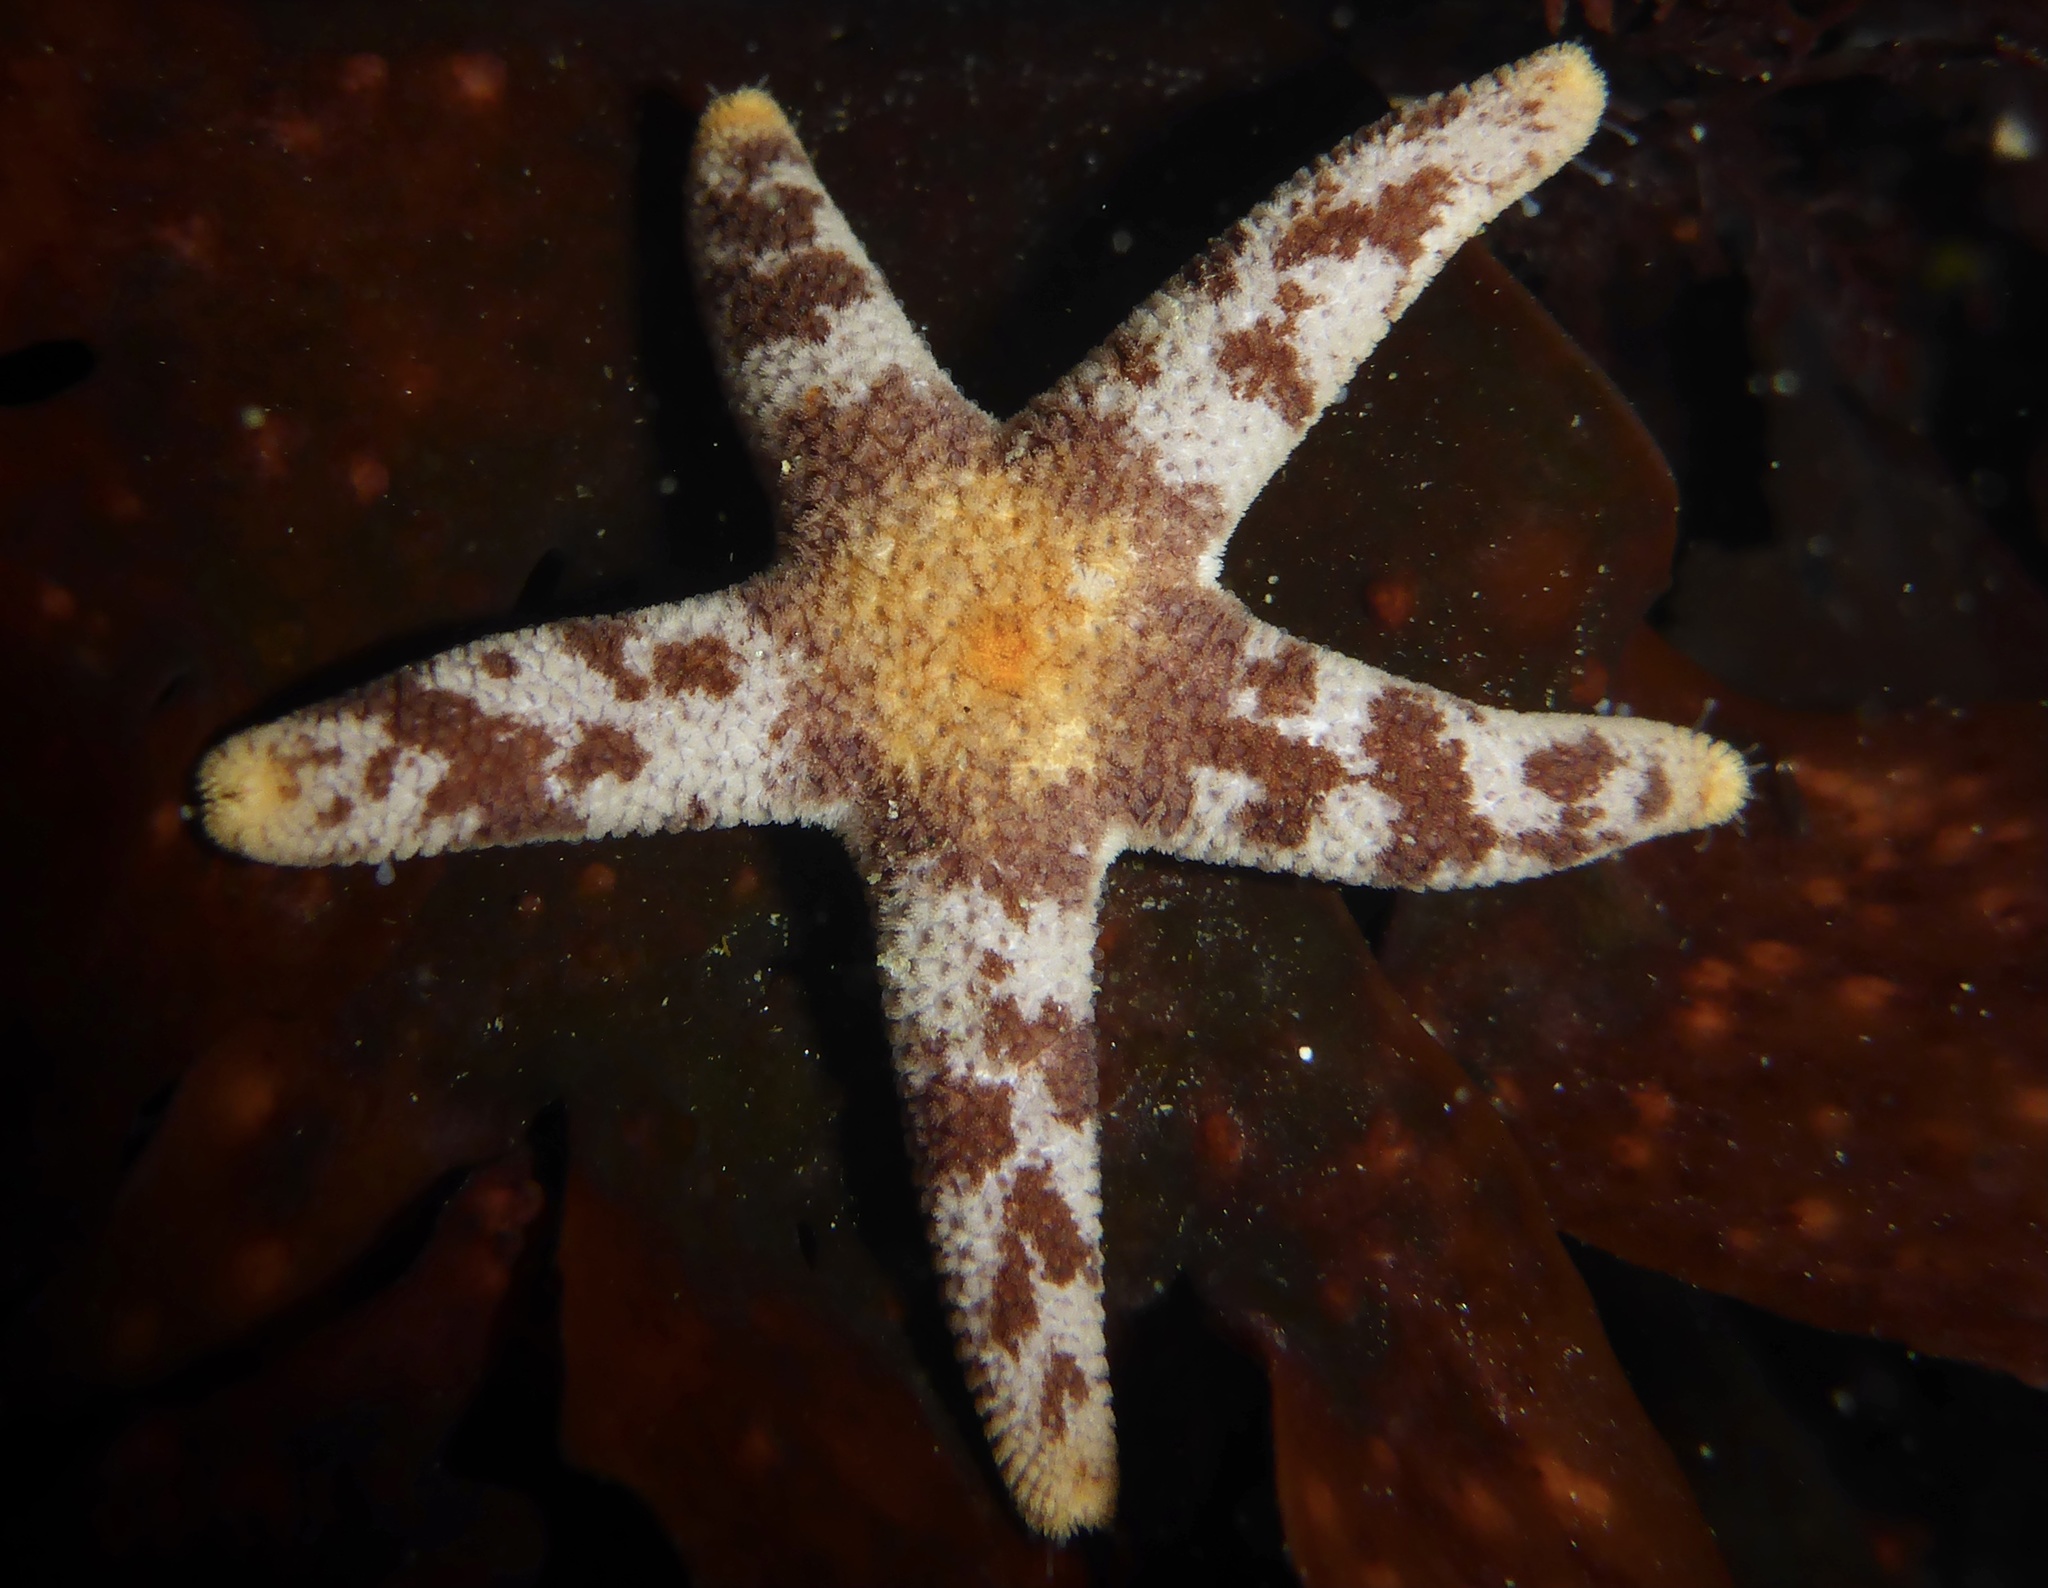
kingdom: Animalia
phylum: Echinodermata
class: Asteroidea
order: Spinulosida
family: Echinasteridae
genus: Henricia
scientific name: Henricia pumila
